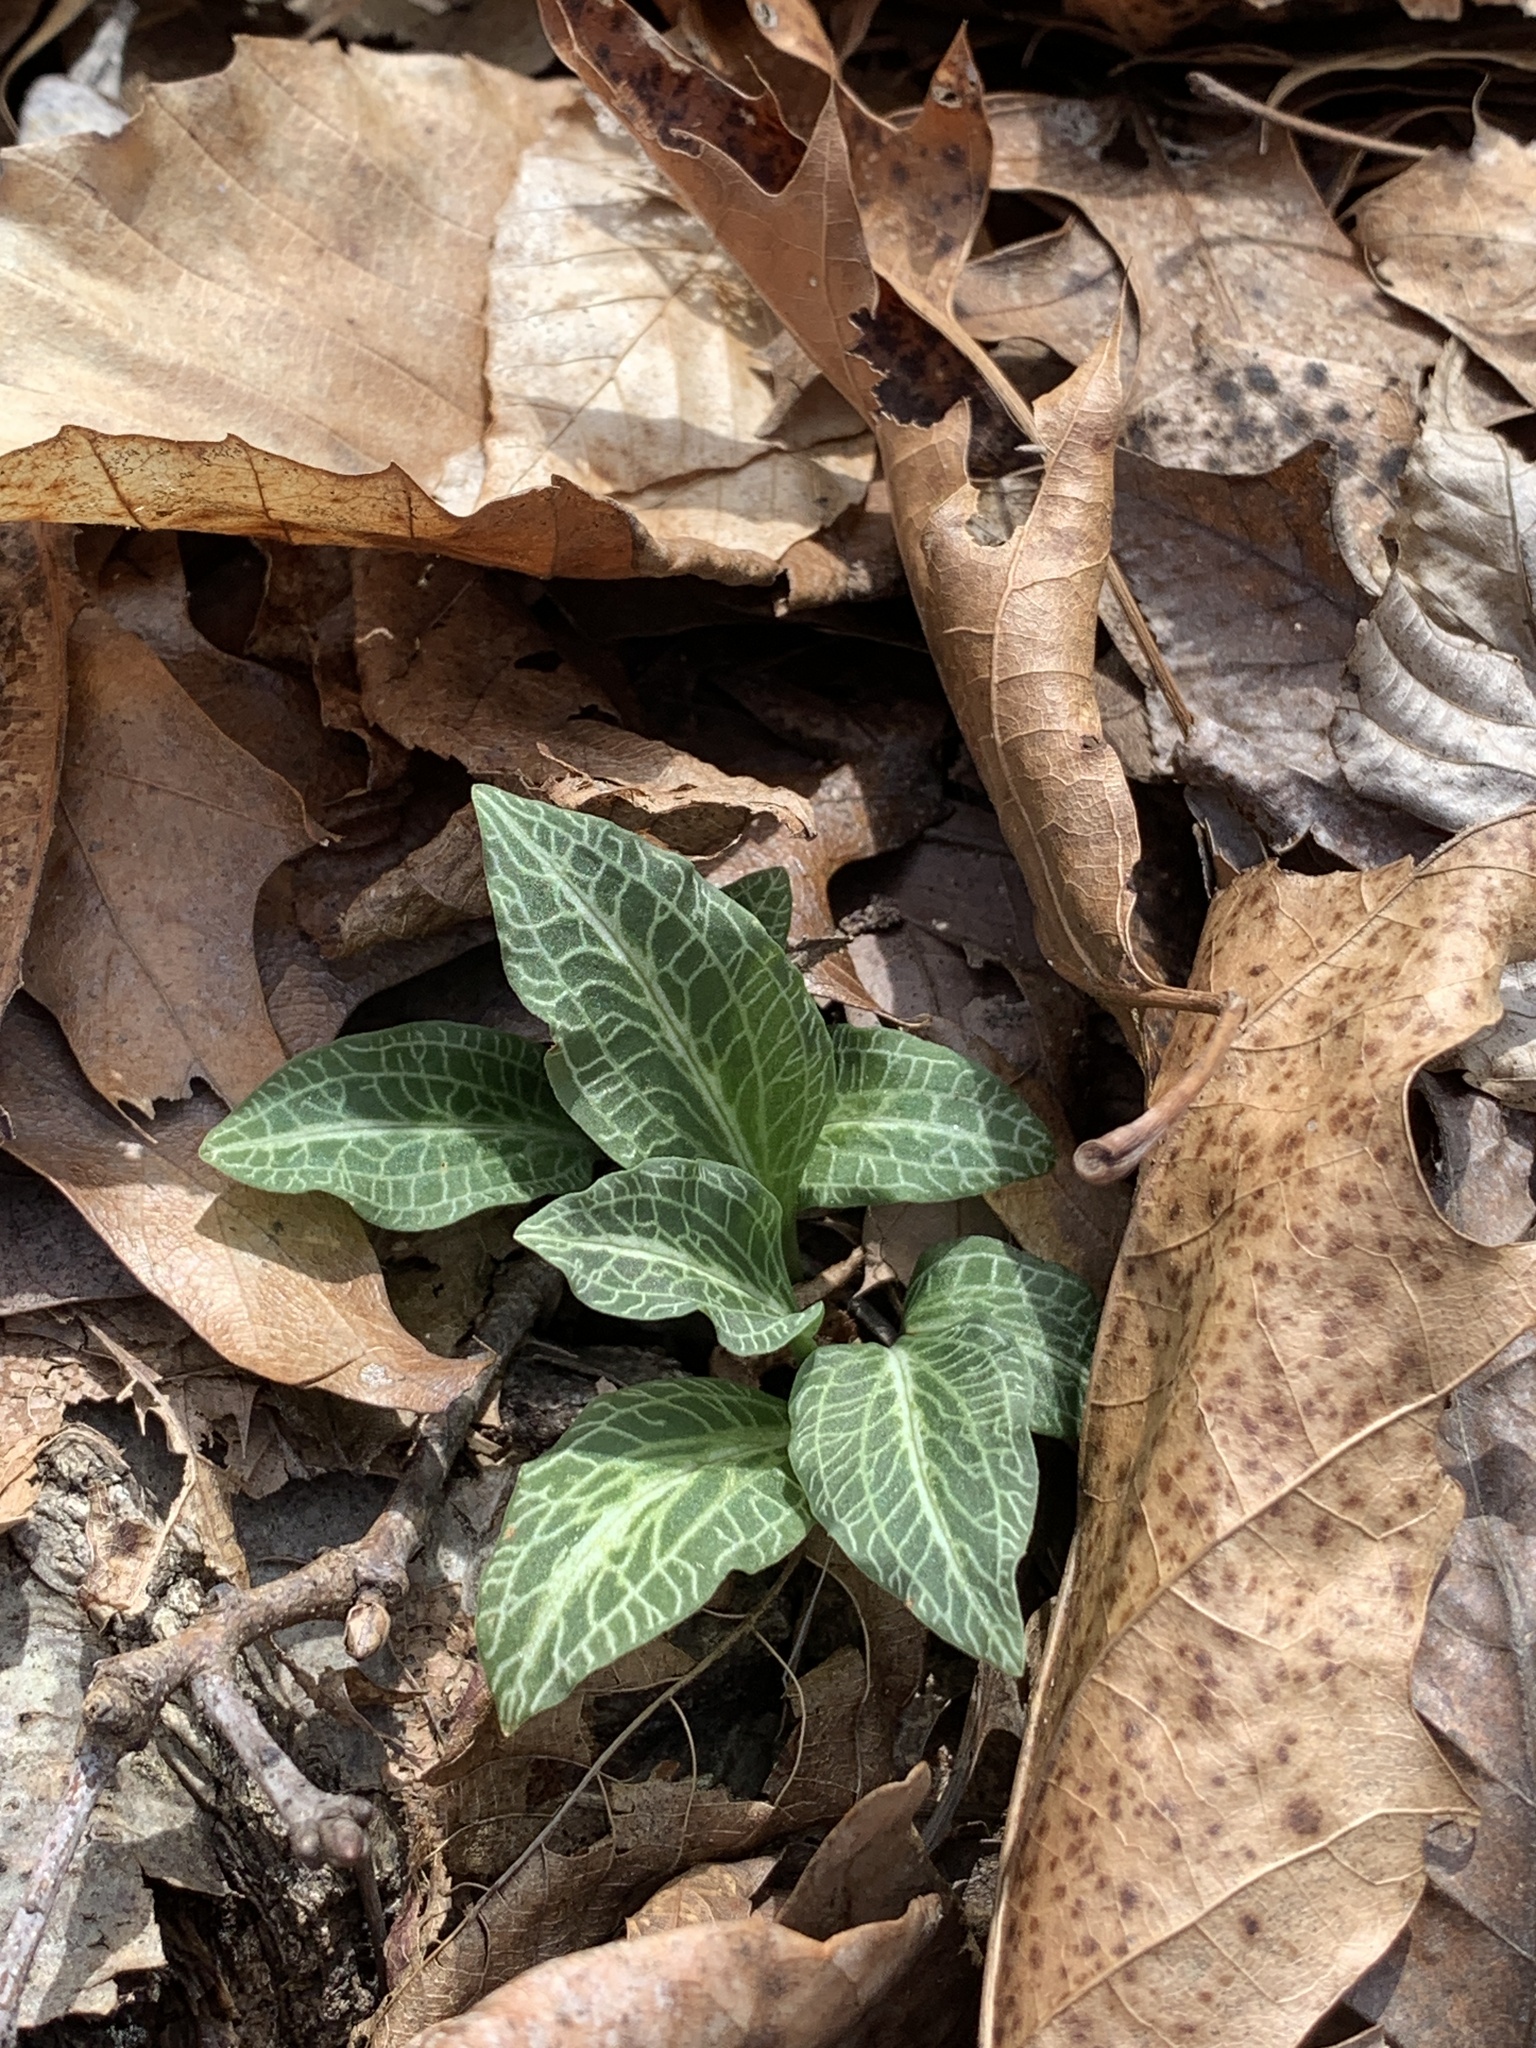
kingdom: Plantae
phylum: Tracheophyta
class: Liliopsida
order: Asparagales
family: Orchidaceae
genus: Goodyera
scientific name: Goodyera pubescens
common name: Downy rattlesnake-plantain
